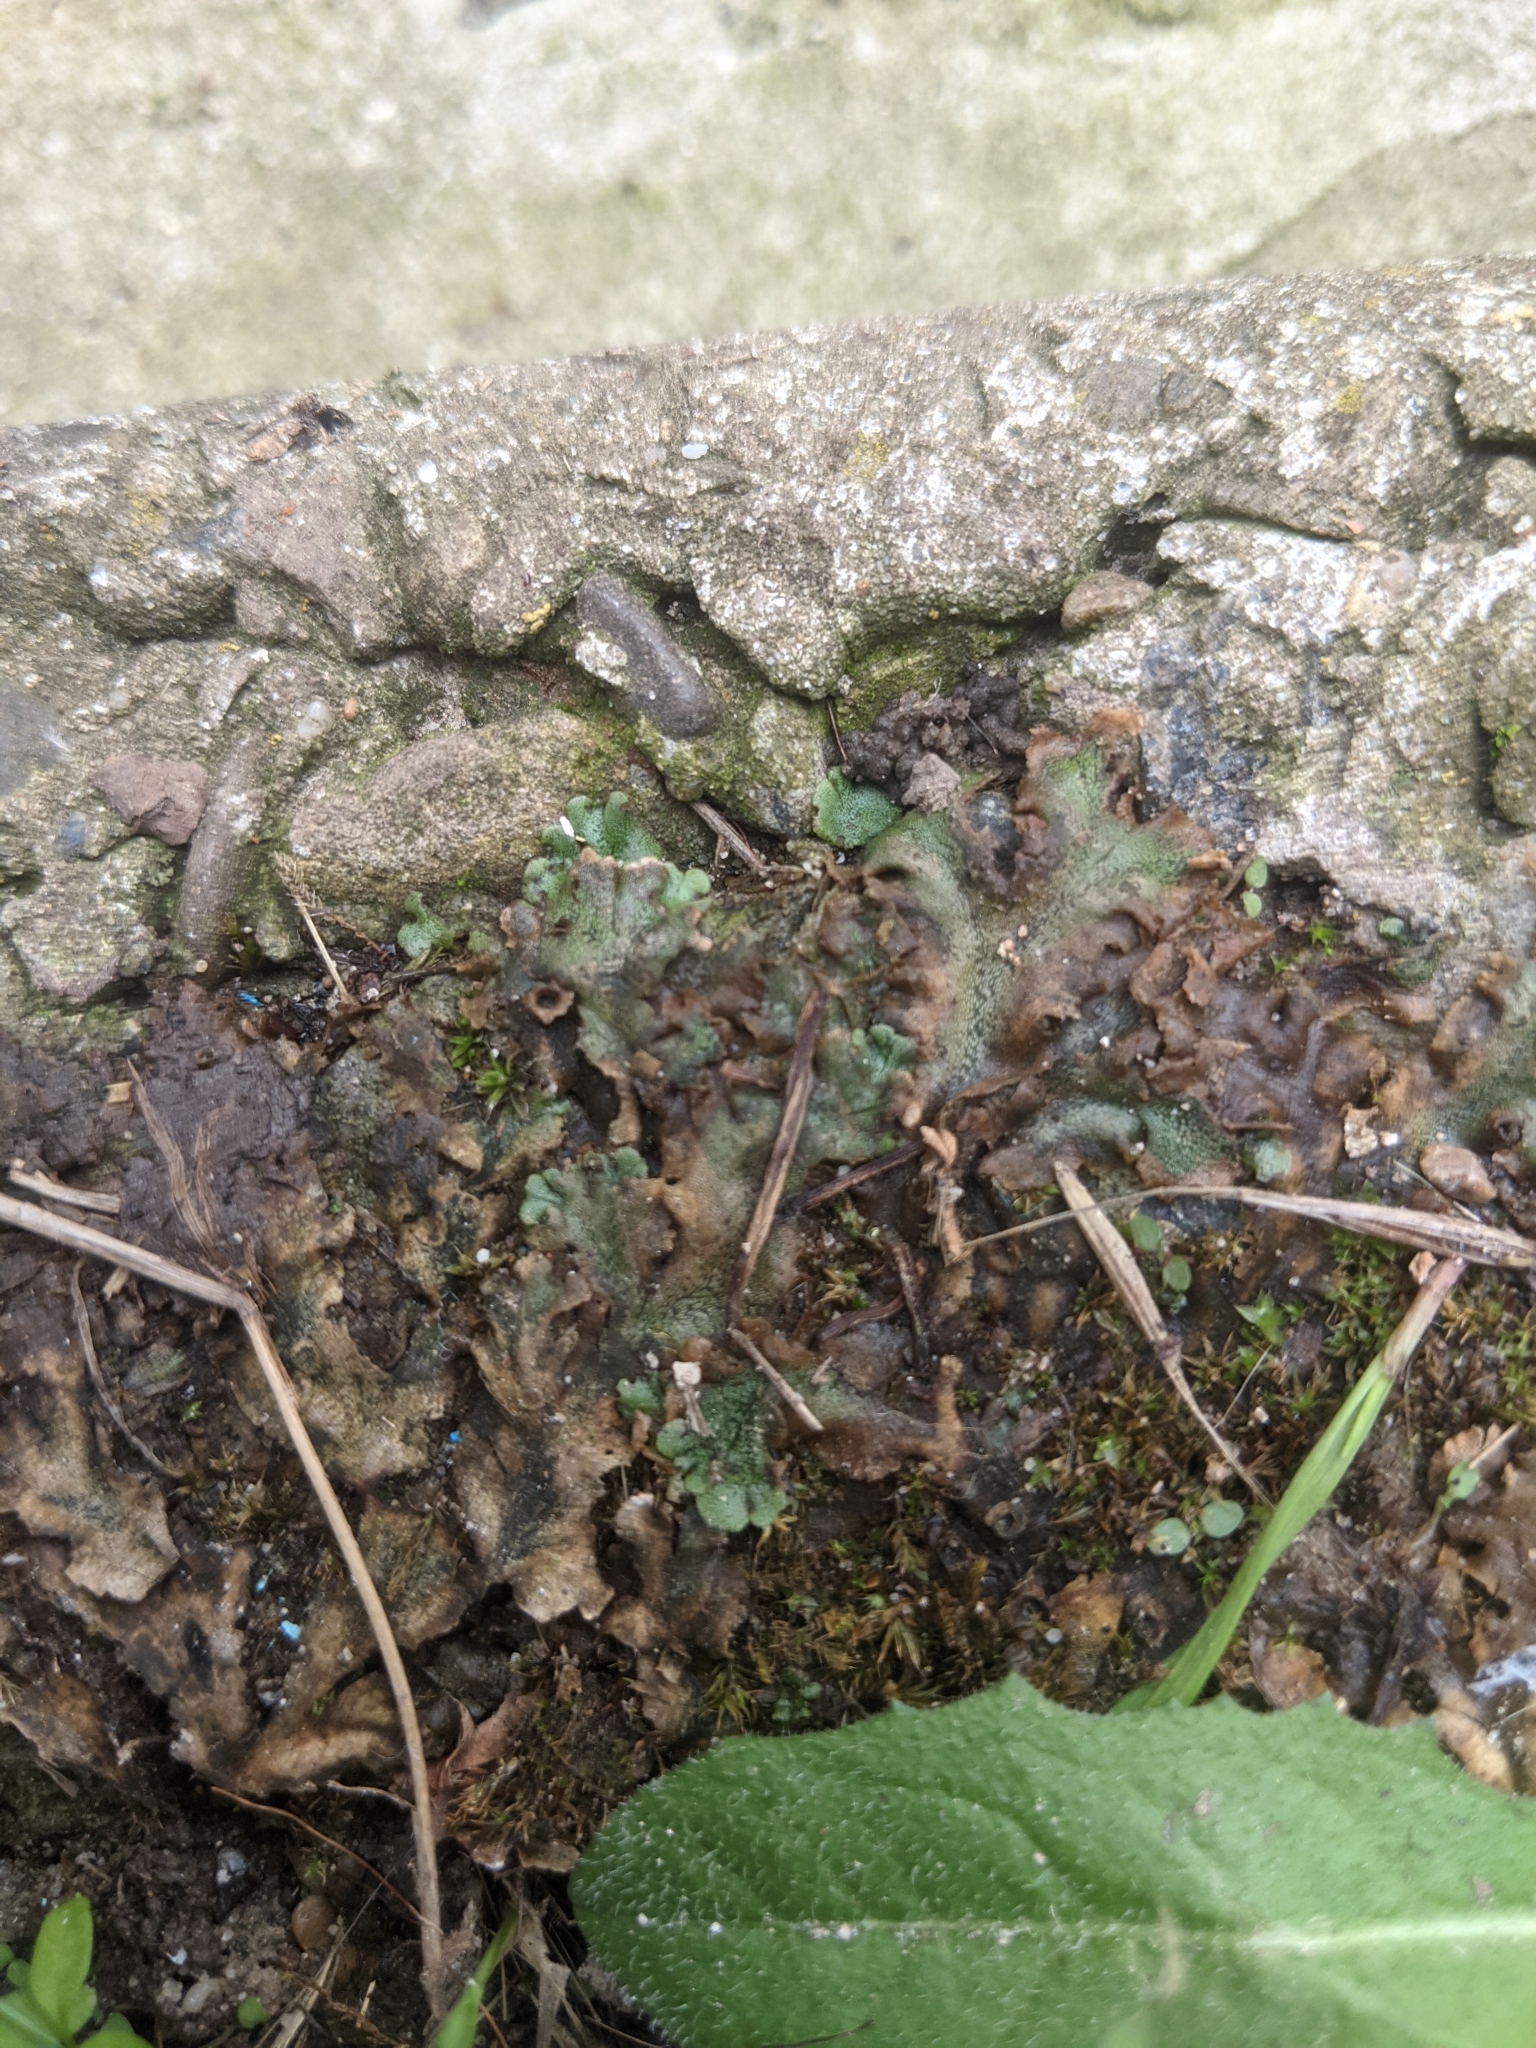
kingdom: Plantae
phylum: Marchantiophyta
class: Marchantiopsida
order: Marchantiales
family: Marchantiaceae
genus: Marchantia
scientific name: Marchantia polymorpha
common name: Common liverwort
